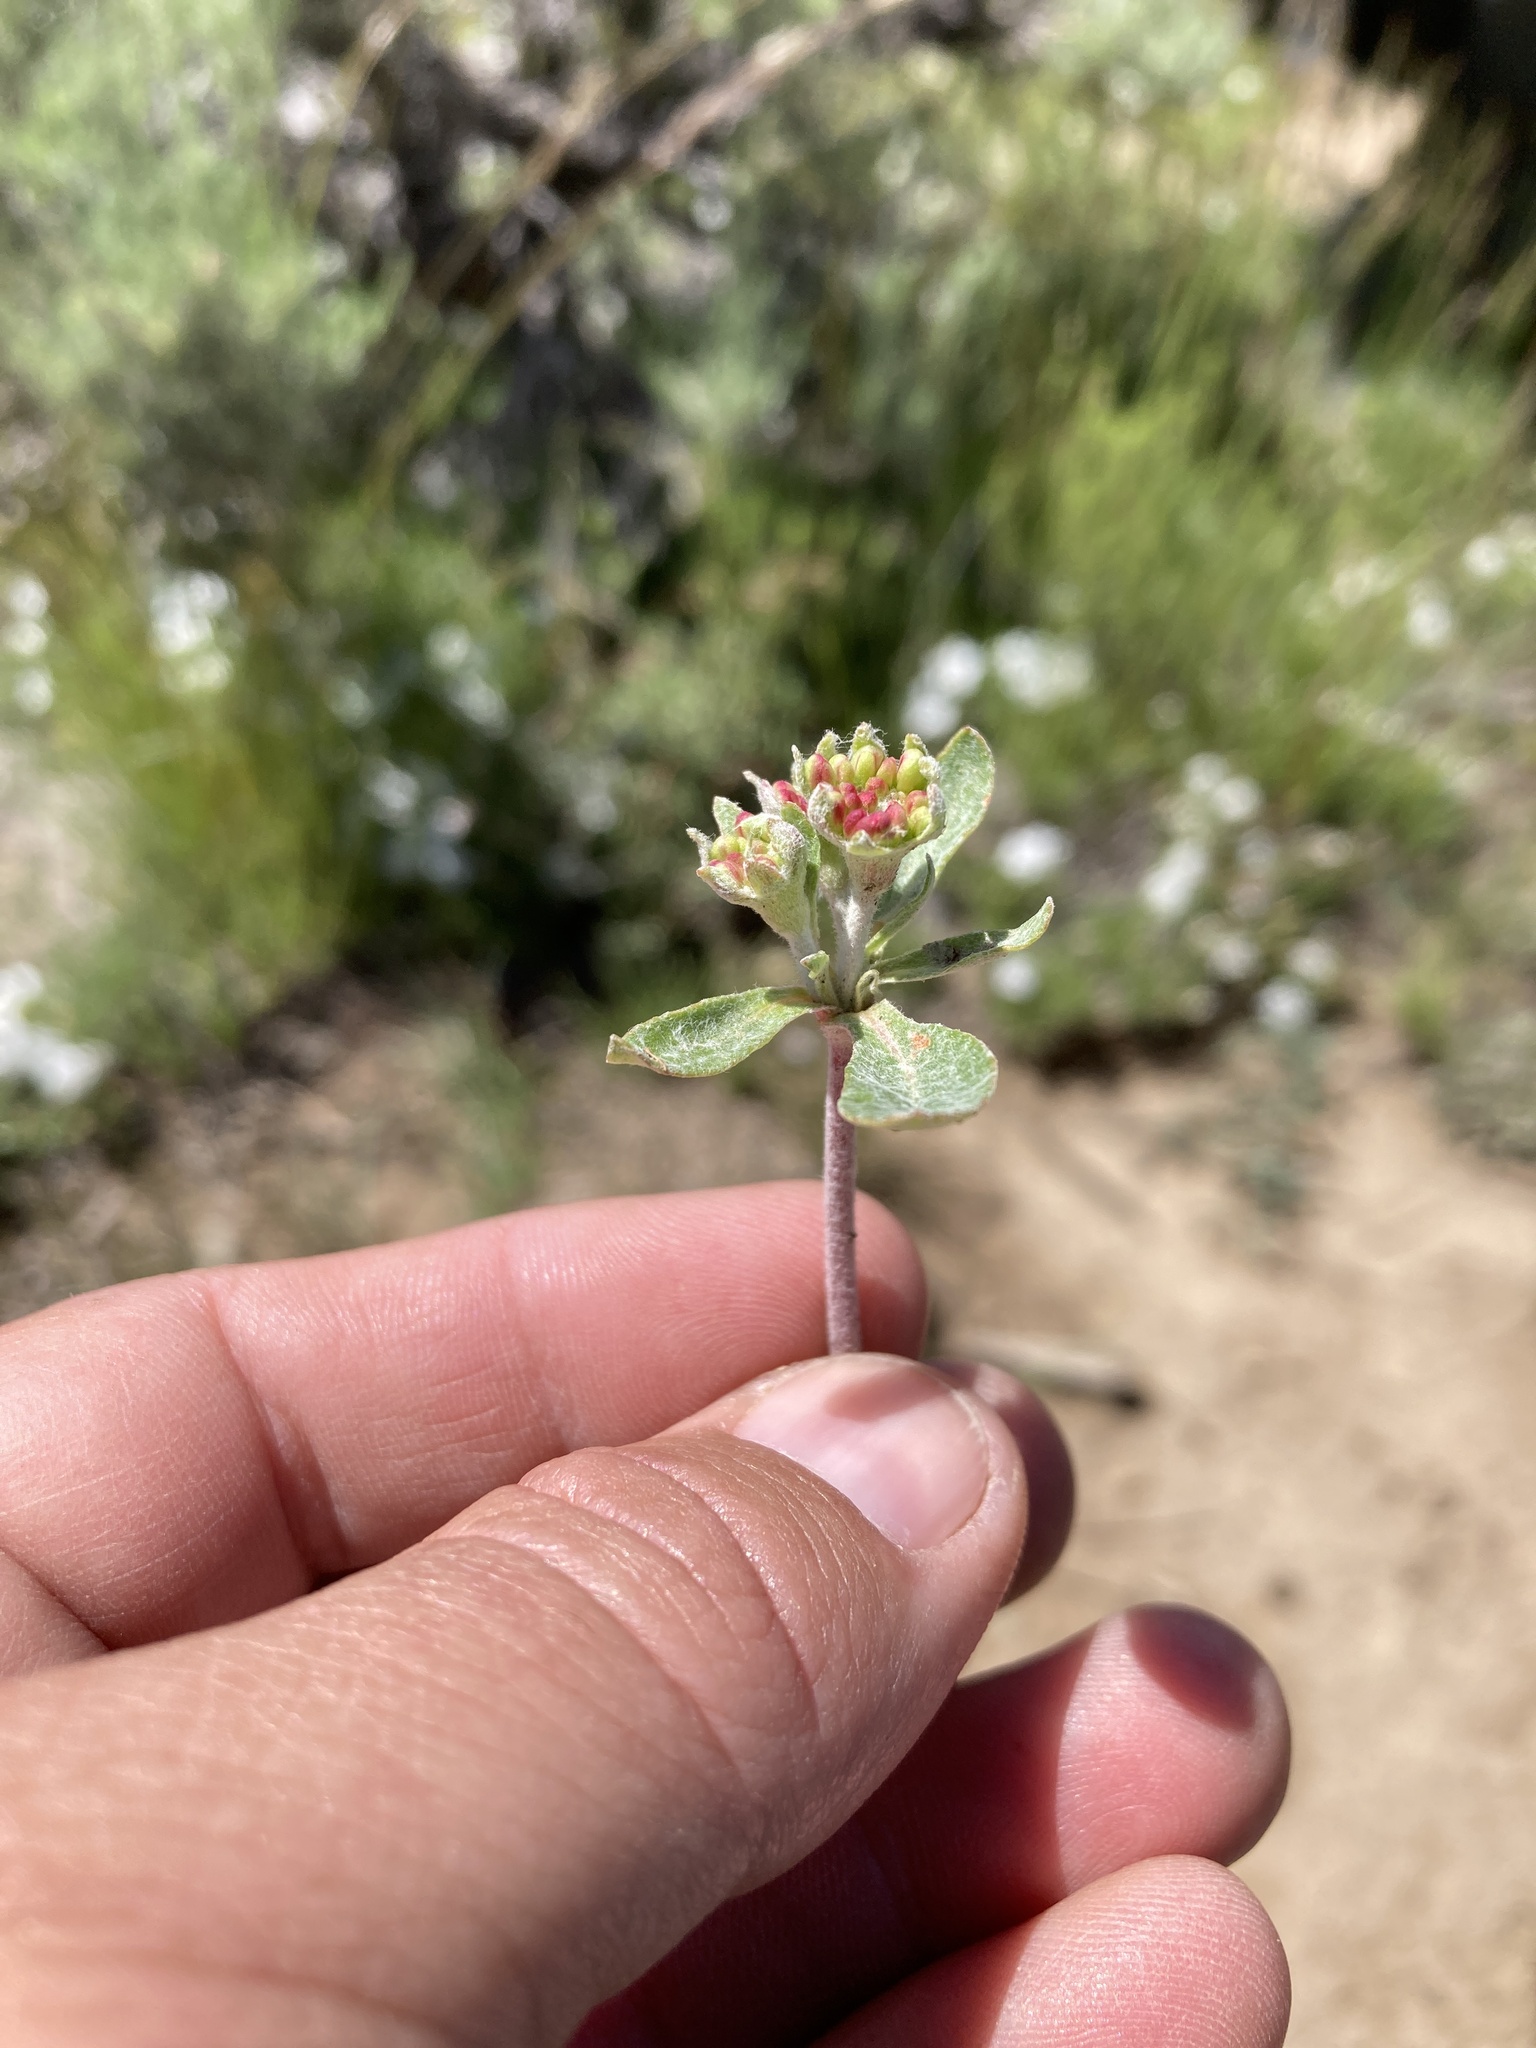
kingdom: Plantae
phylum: Tracheophyta
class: Magnoliopsida
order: Caryophyllales
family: Polygonaceae
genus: Eriogonum
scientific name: Eriogonum umbellatum
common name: Sulfur-buckwheat
